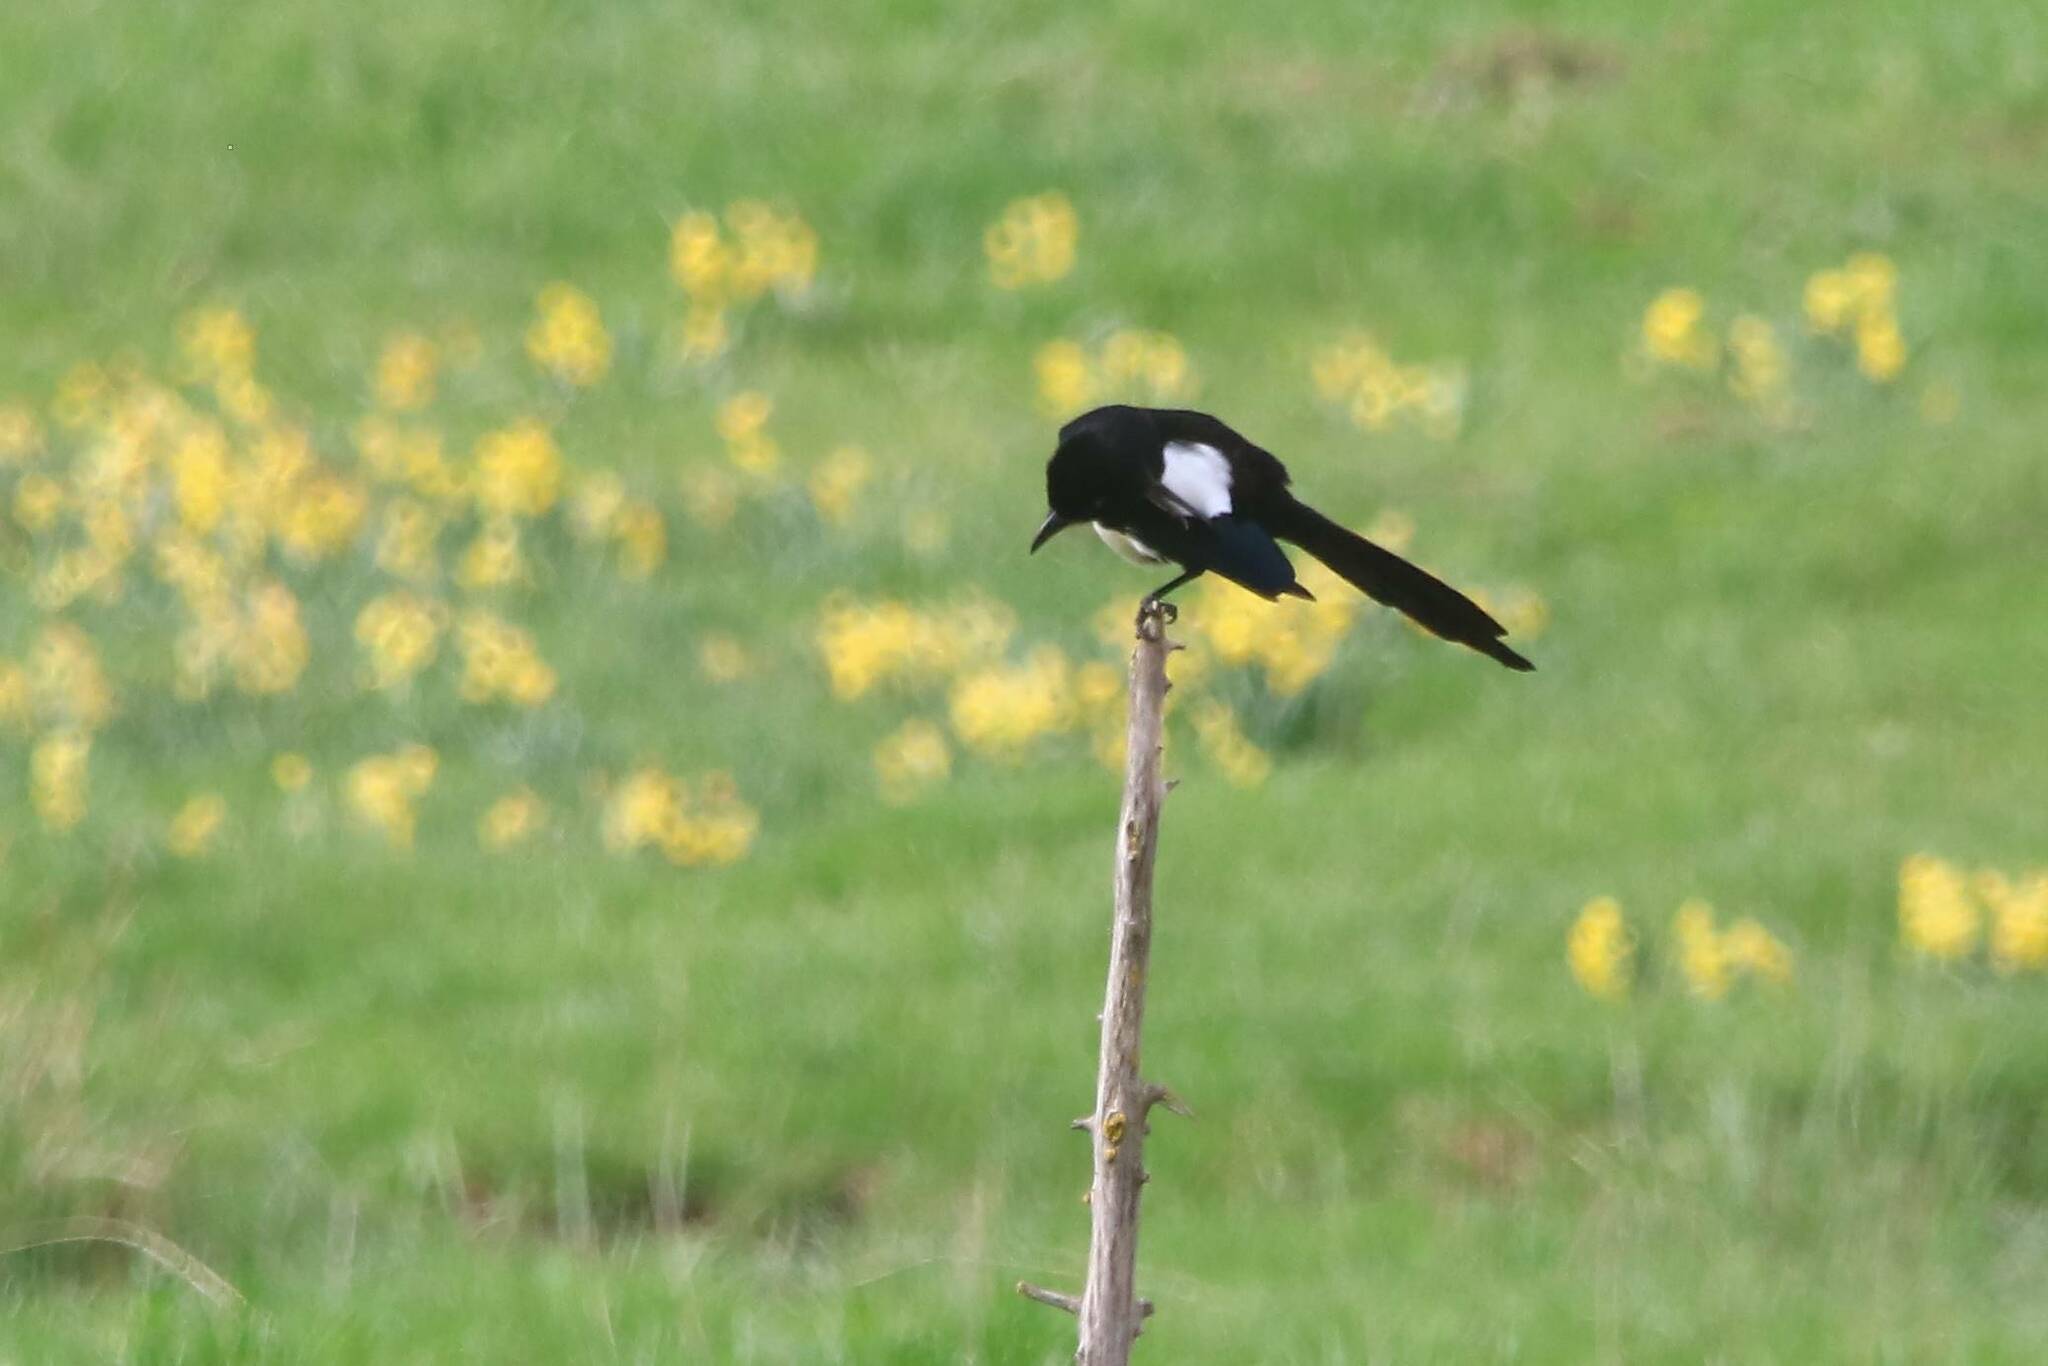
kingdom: Animalia
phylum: Chordata
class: Aves
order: Passeriformes
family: Corvidae
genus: Pica
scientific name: Pica mauritanica
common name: Maghreb magpie
